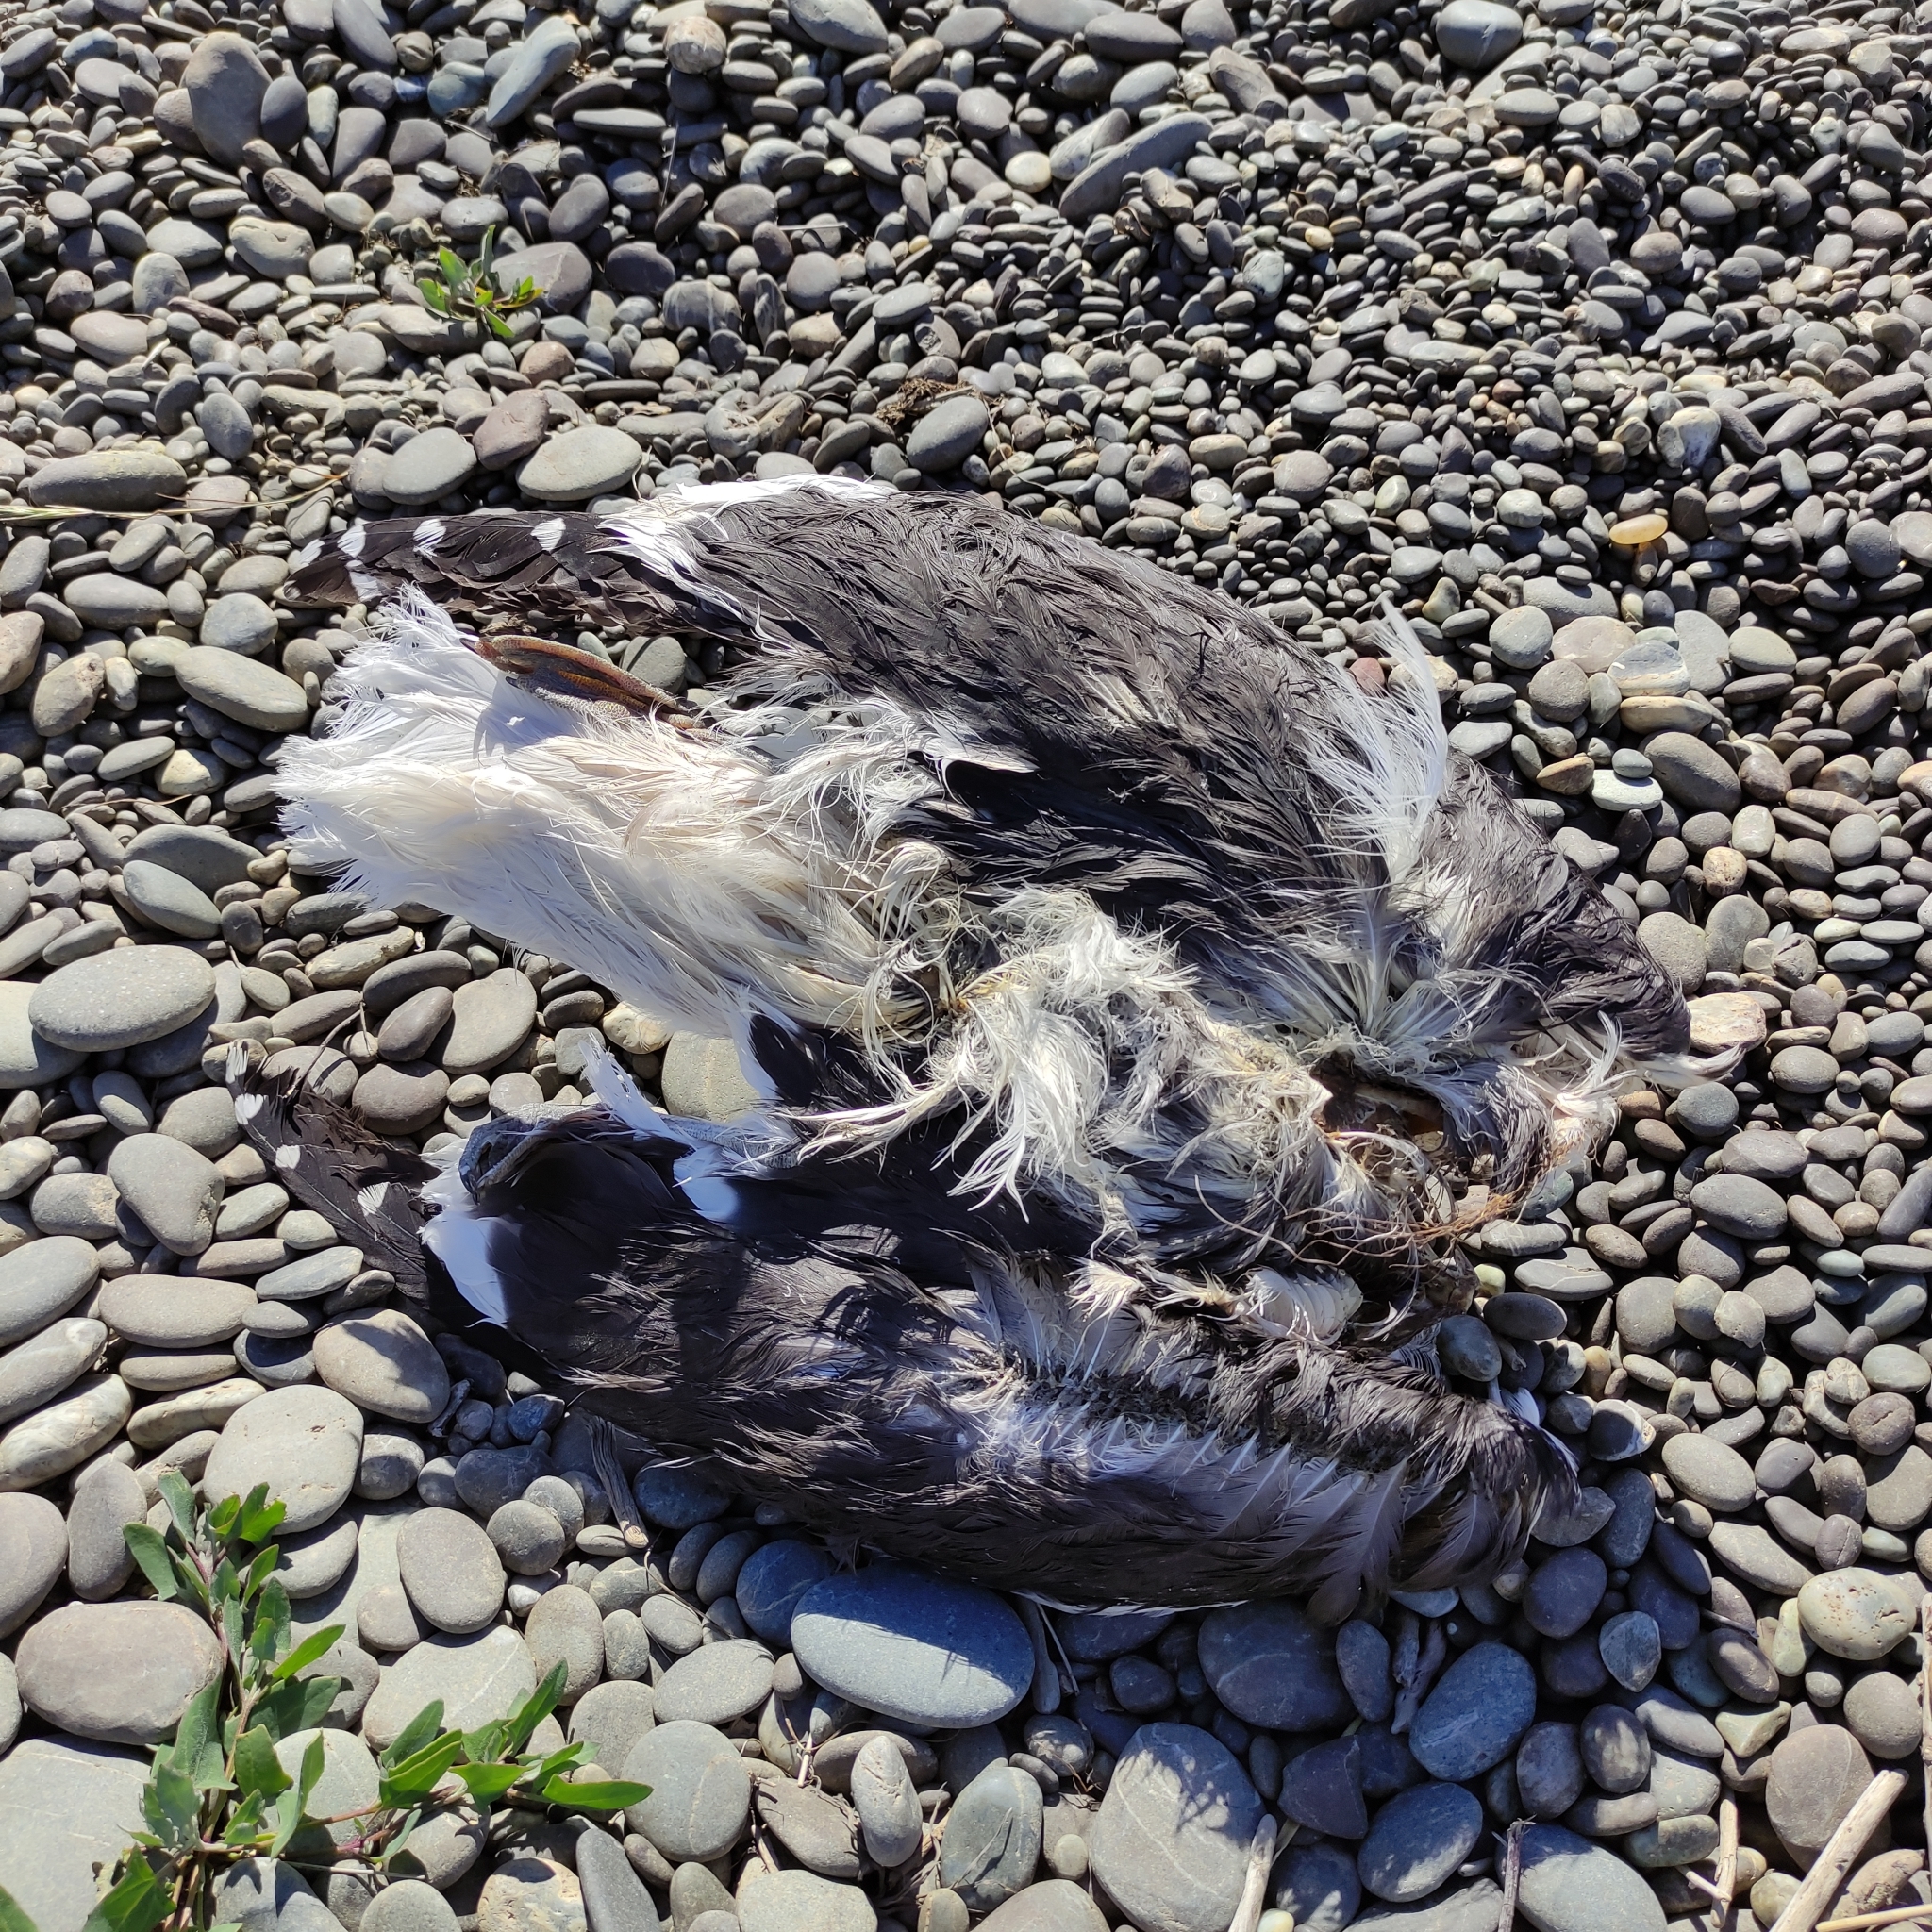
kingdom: Animalia
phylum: Chordata
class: Aves
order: Charadriiformes
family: Laridae
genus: Larus
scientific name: Larus dominicanus
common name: Kelp gull
